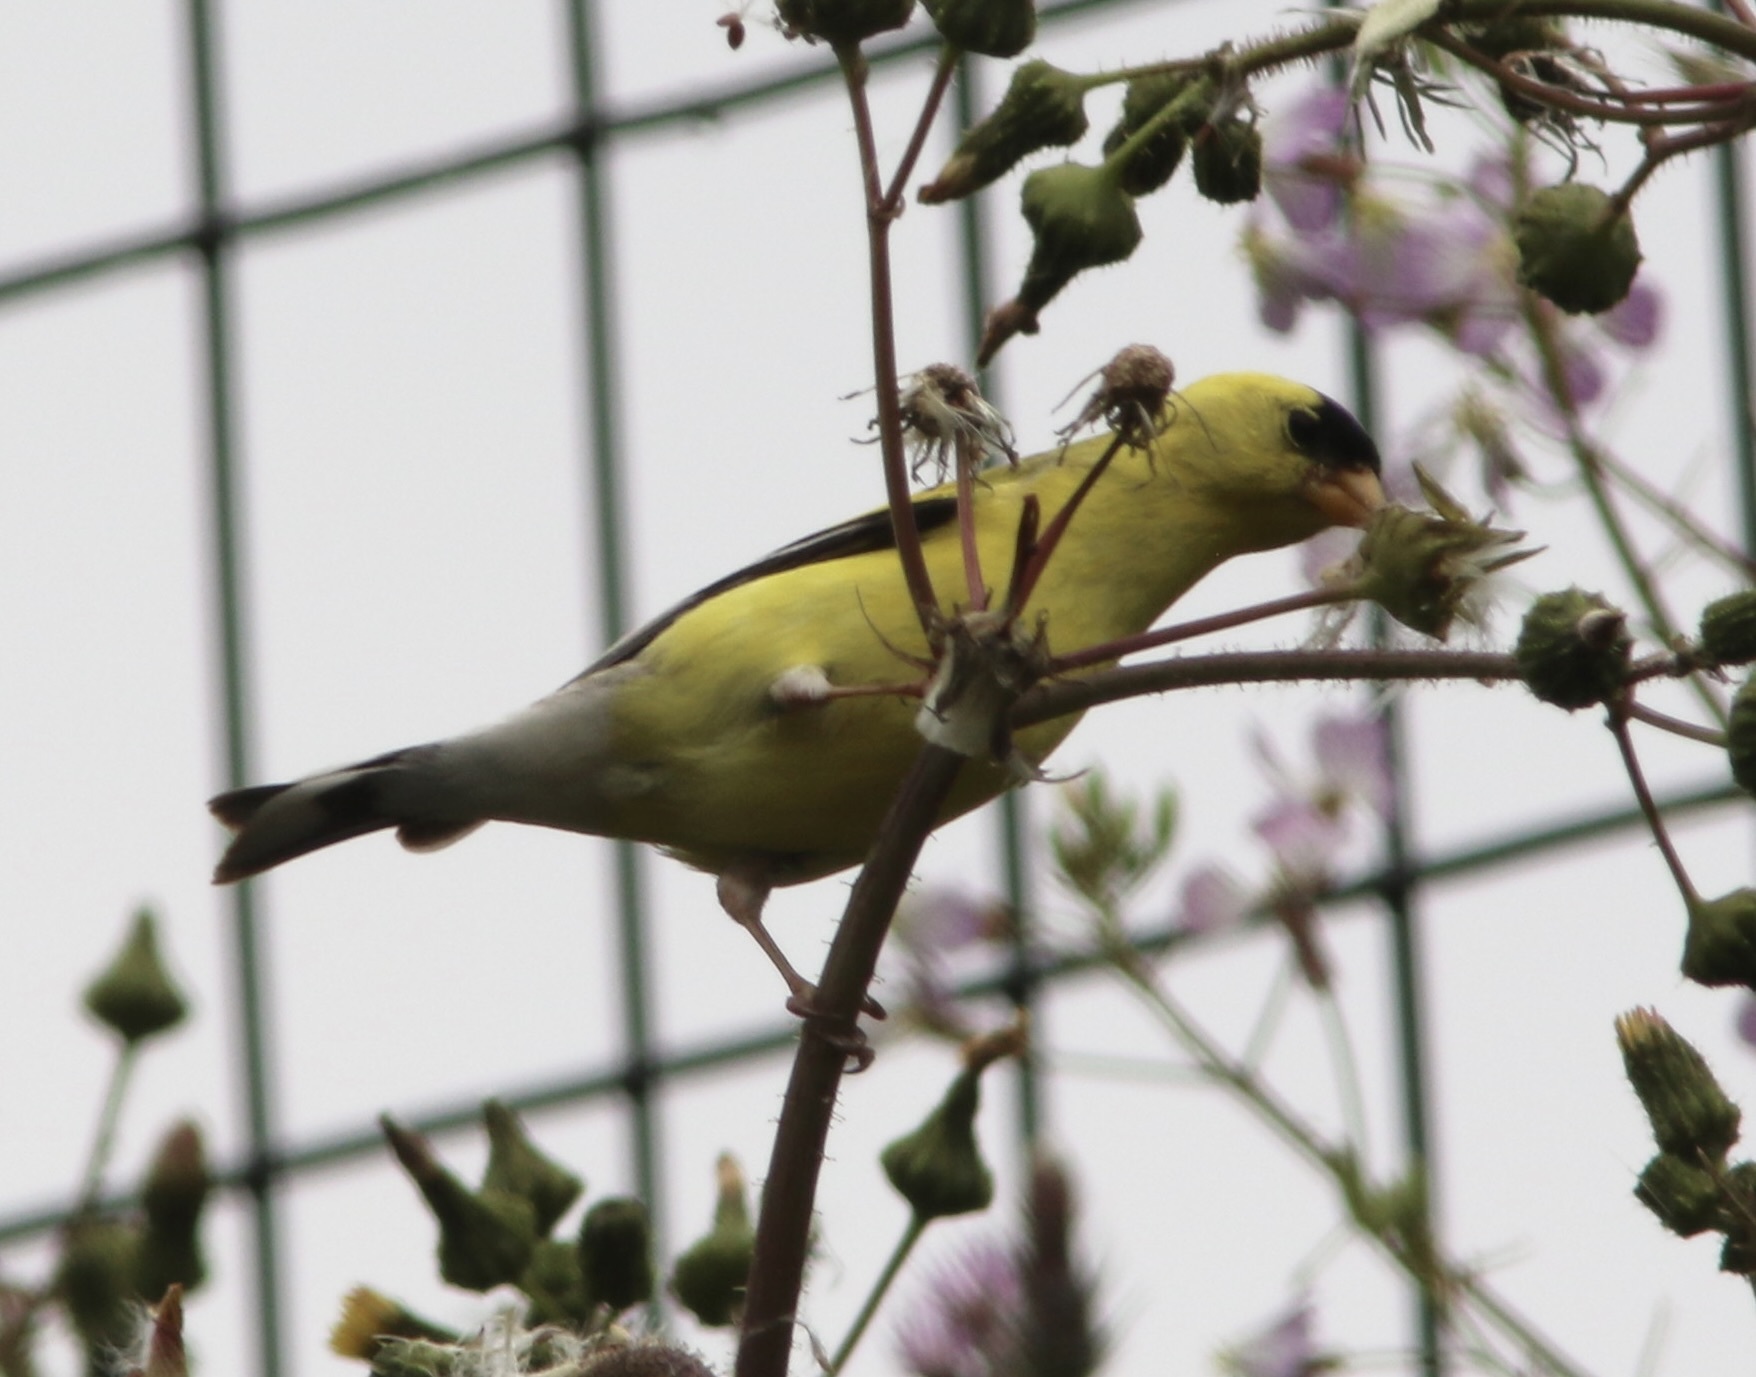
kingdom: Animalia
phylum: Chordata
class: Aves
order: Passeriformes
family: Fringillidae
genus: Spinus
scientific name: Spinus tristis
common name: American goldfinch
